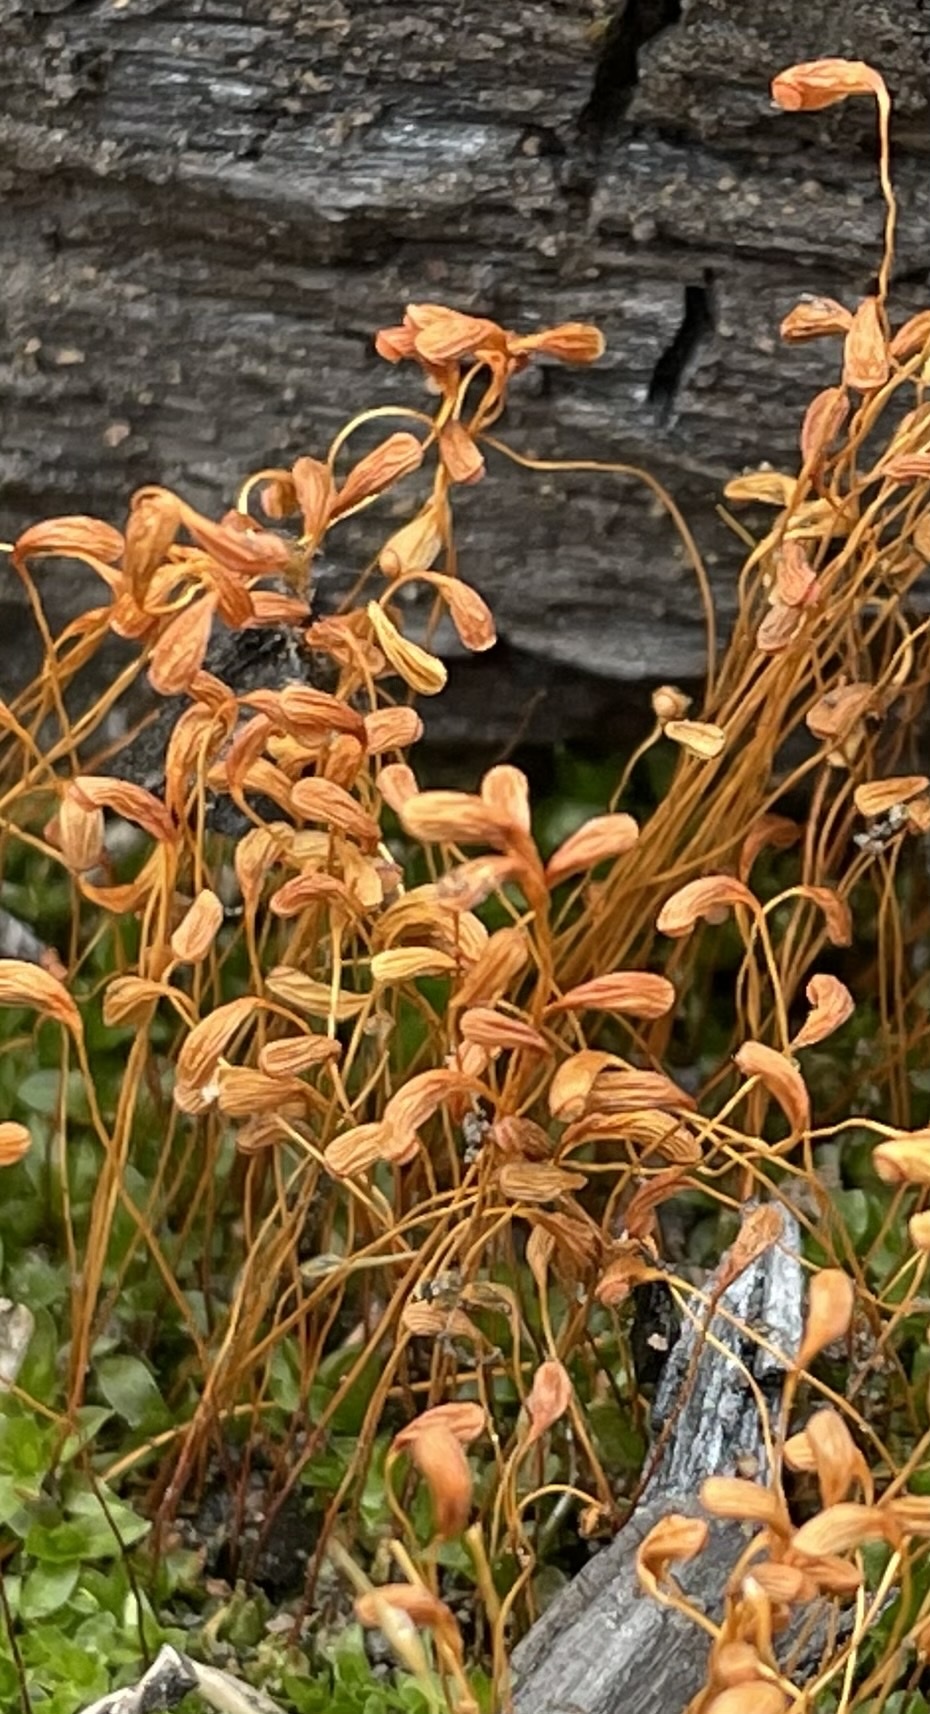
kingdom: Plantae
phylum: Bryophyta
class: Bryopsida
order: Funariales
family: Funariaceae
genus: Funaria
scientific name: Funaria hygrometrica
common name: Common cord moss
